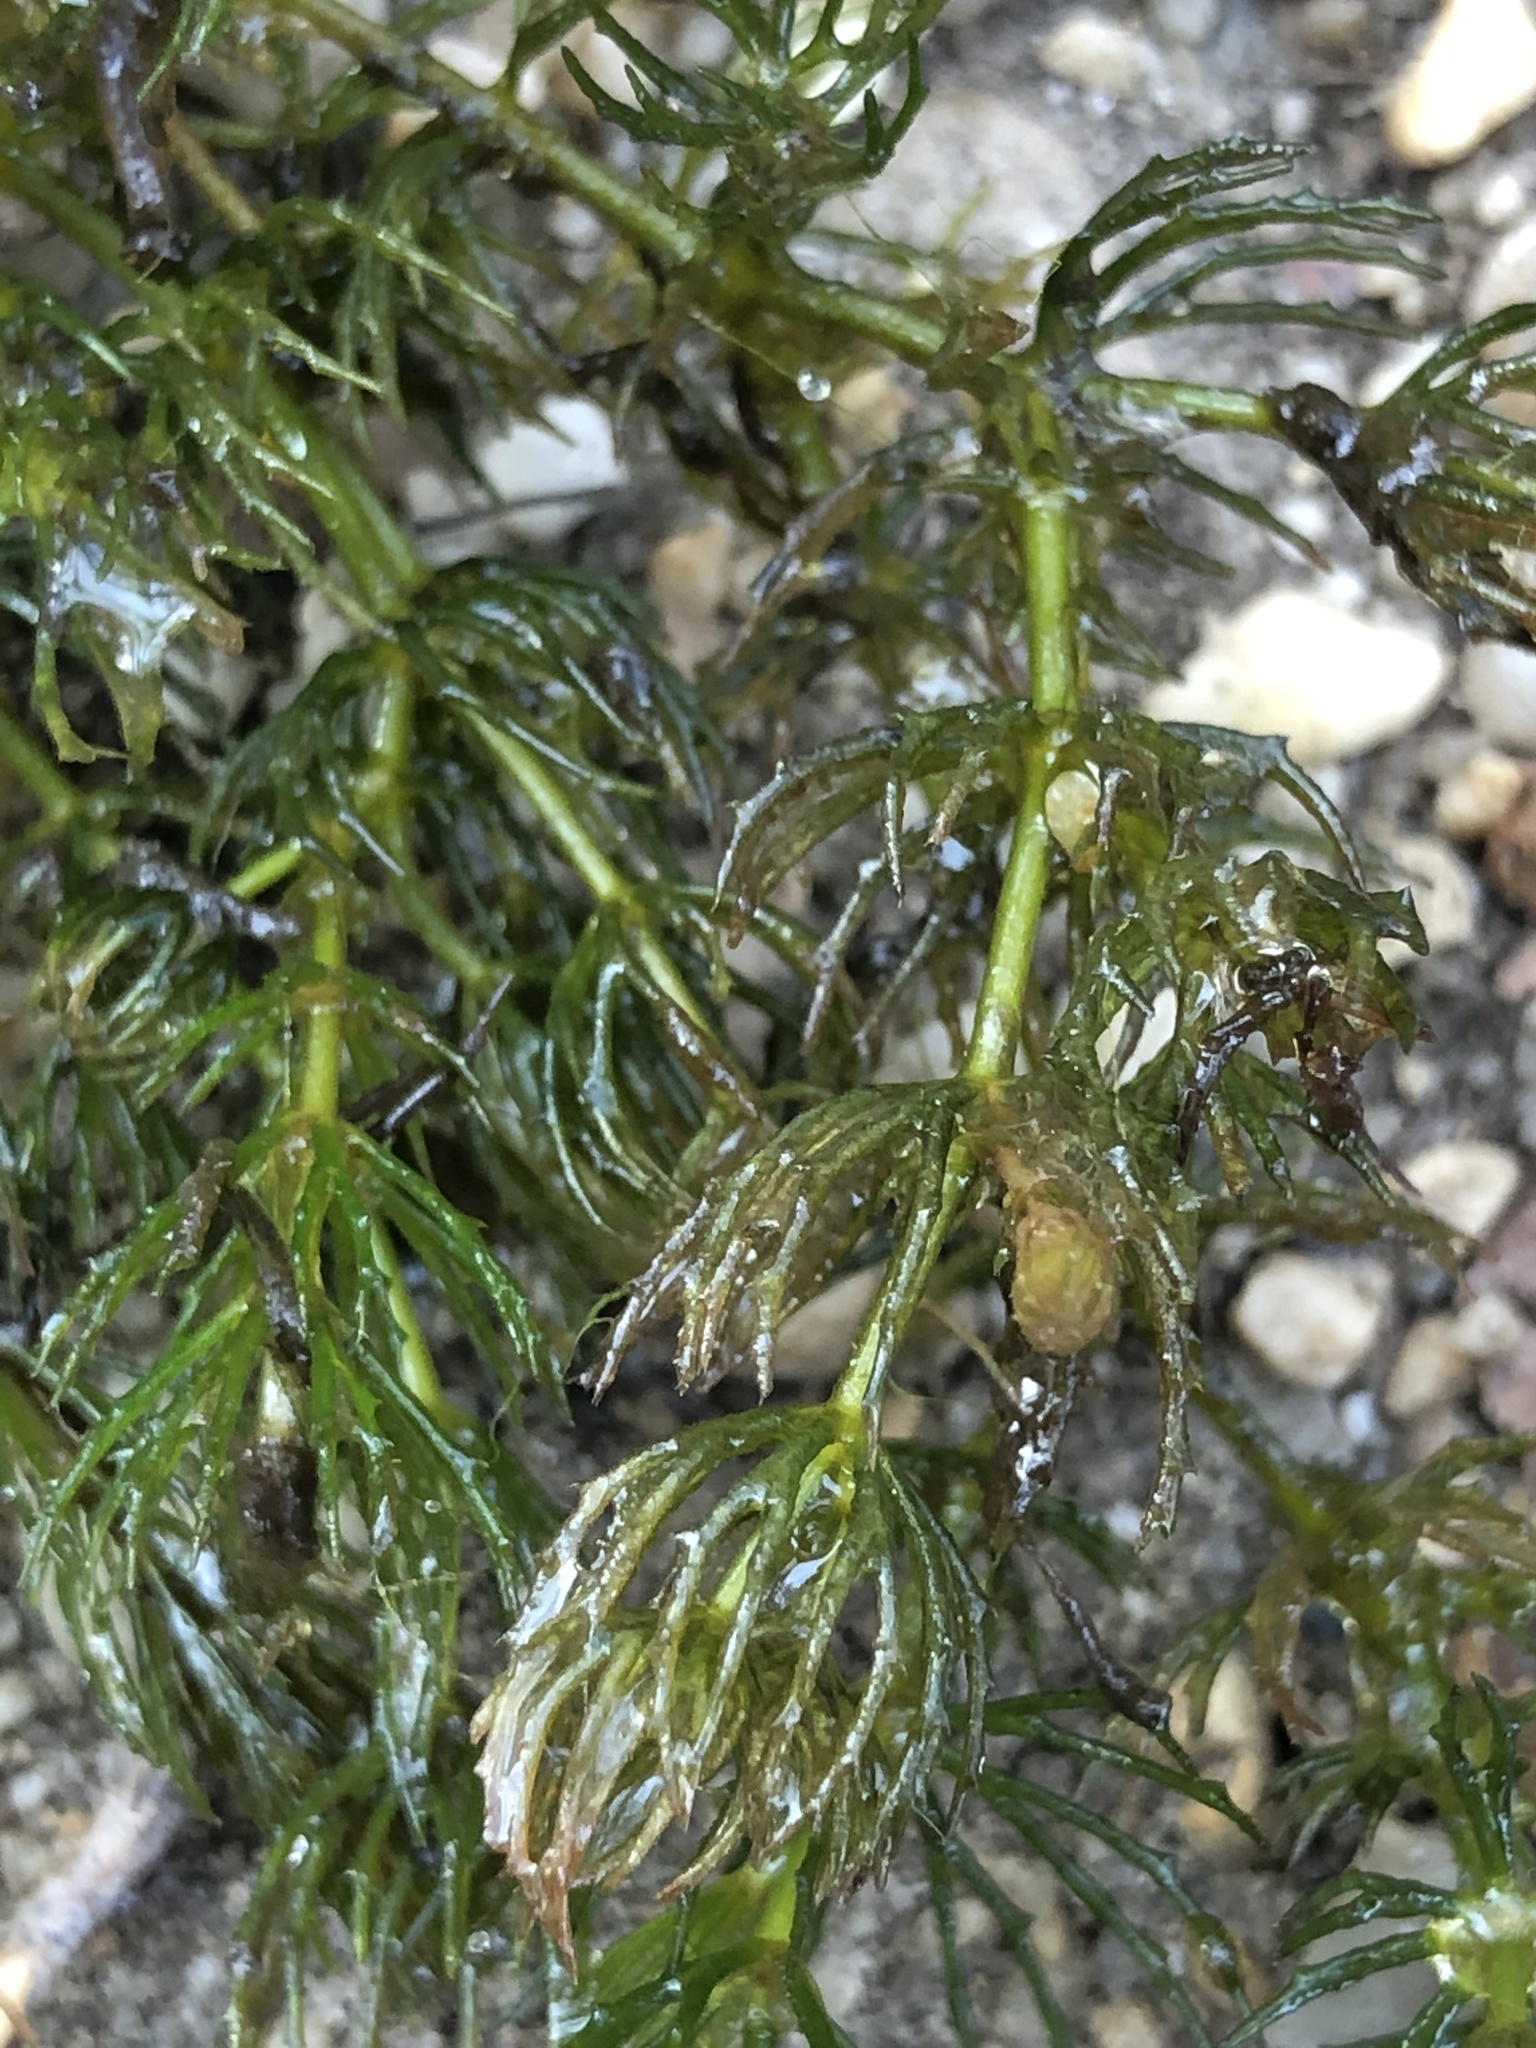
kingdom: Plantae
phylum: Tracheophyta
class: Magnoliopsida
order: Ceratophyllales
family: Ceratophyllaceae
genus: Ceratophyllum
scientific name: Ceratophyllum demersum
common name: Rigid hornwort
